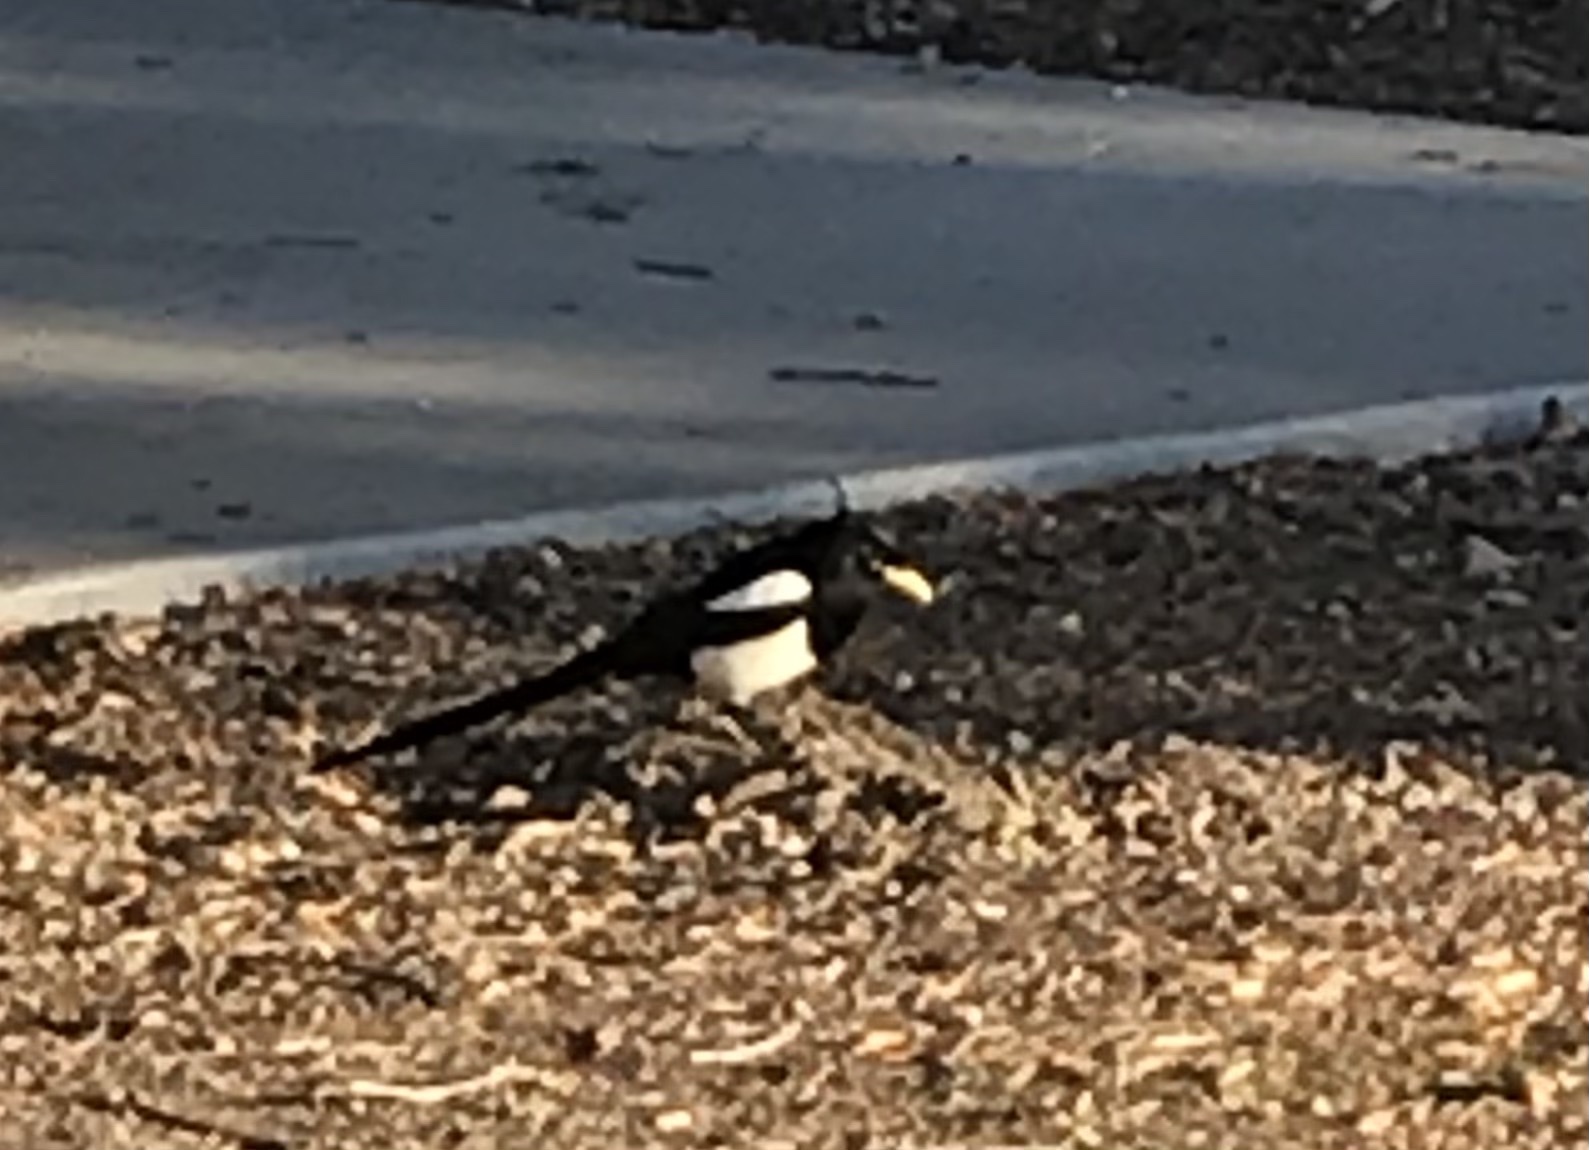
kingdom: Animalia
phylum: Chordata
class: Aves
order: Passeriformes
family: Corvidae
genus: Pica
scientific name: Pica nuttalli
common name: Yellow-billed magpie
